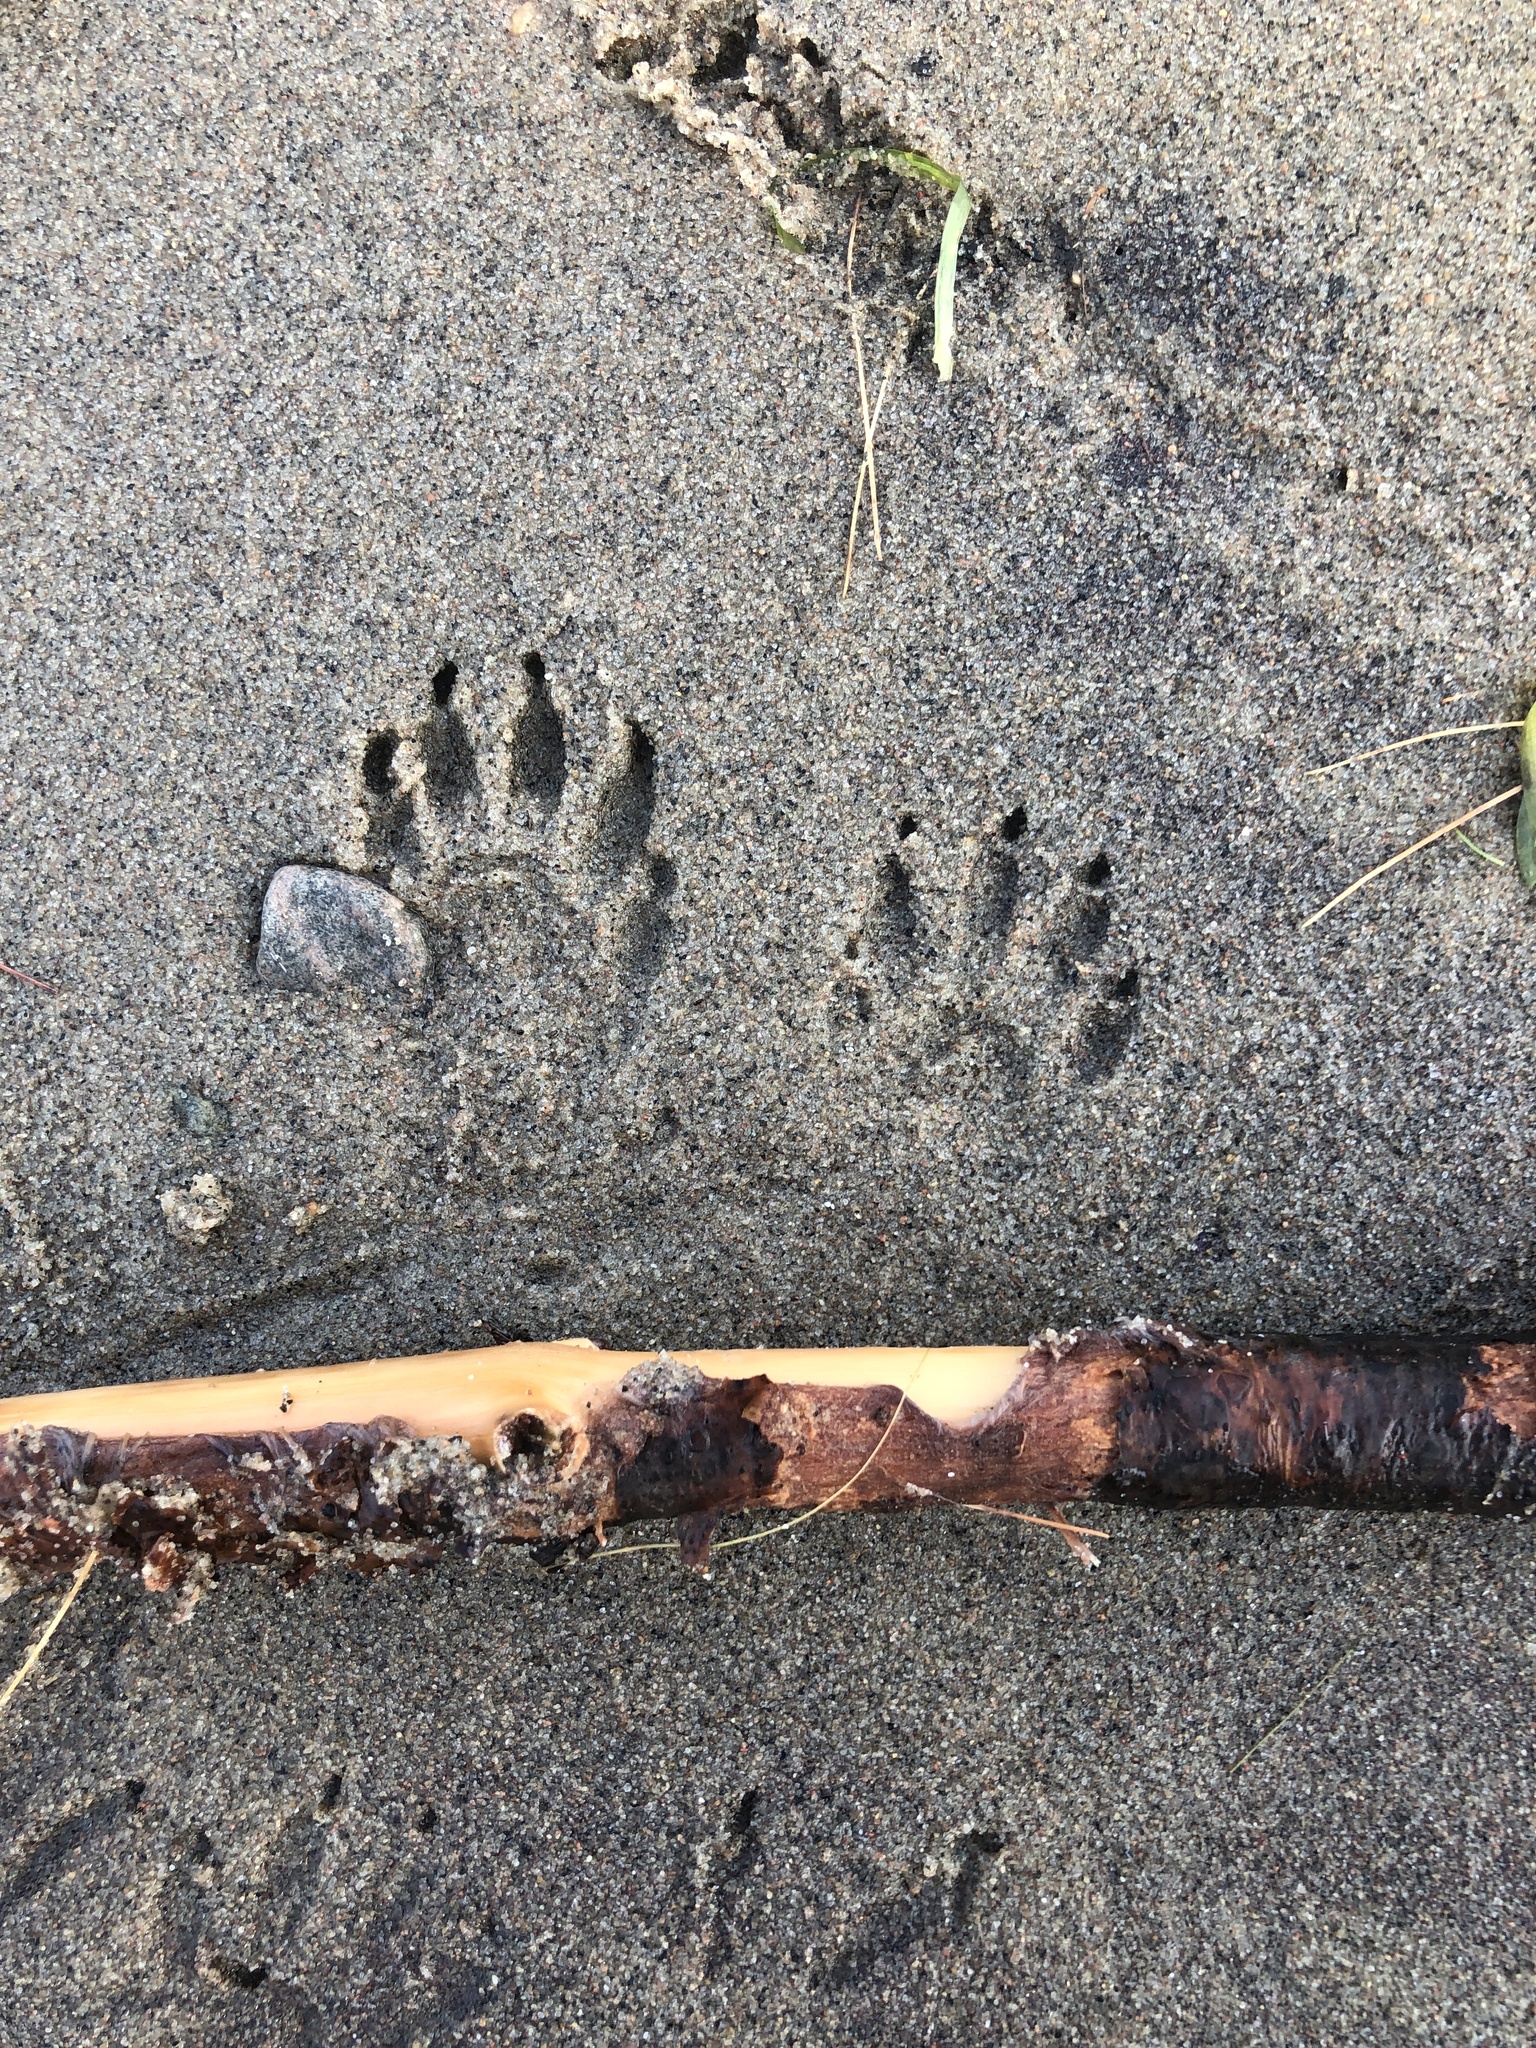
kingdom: Animalia
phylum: Chordata
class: Mammalia
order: Carnivora
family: Procyonidae
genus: Procyon
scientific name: Procyon lotor
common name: Raccoon
